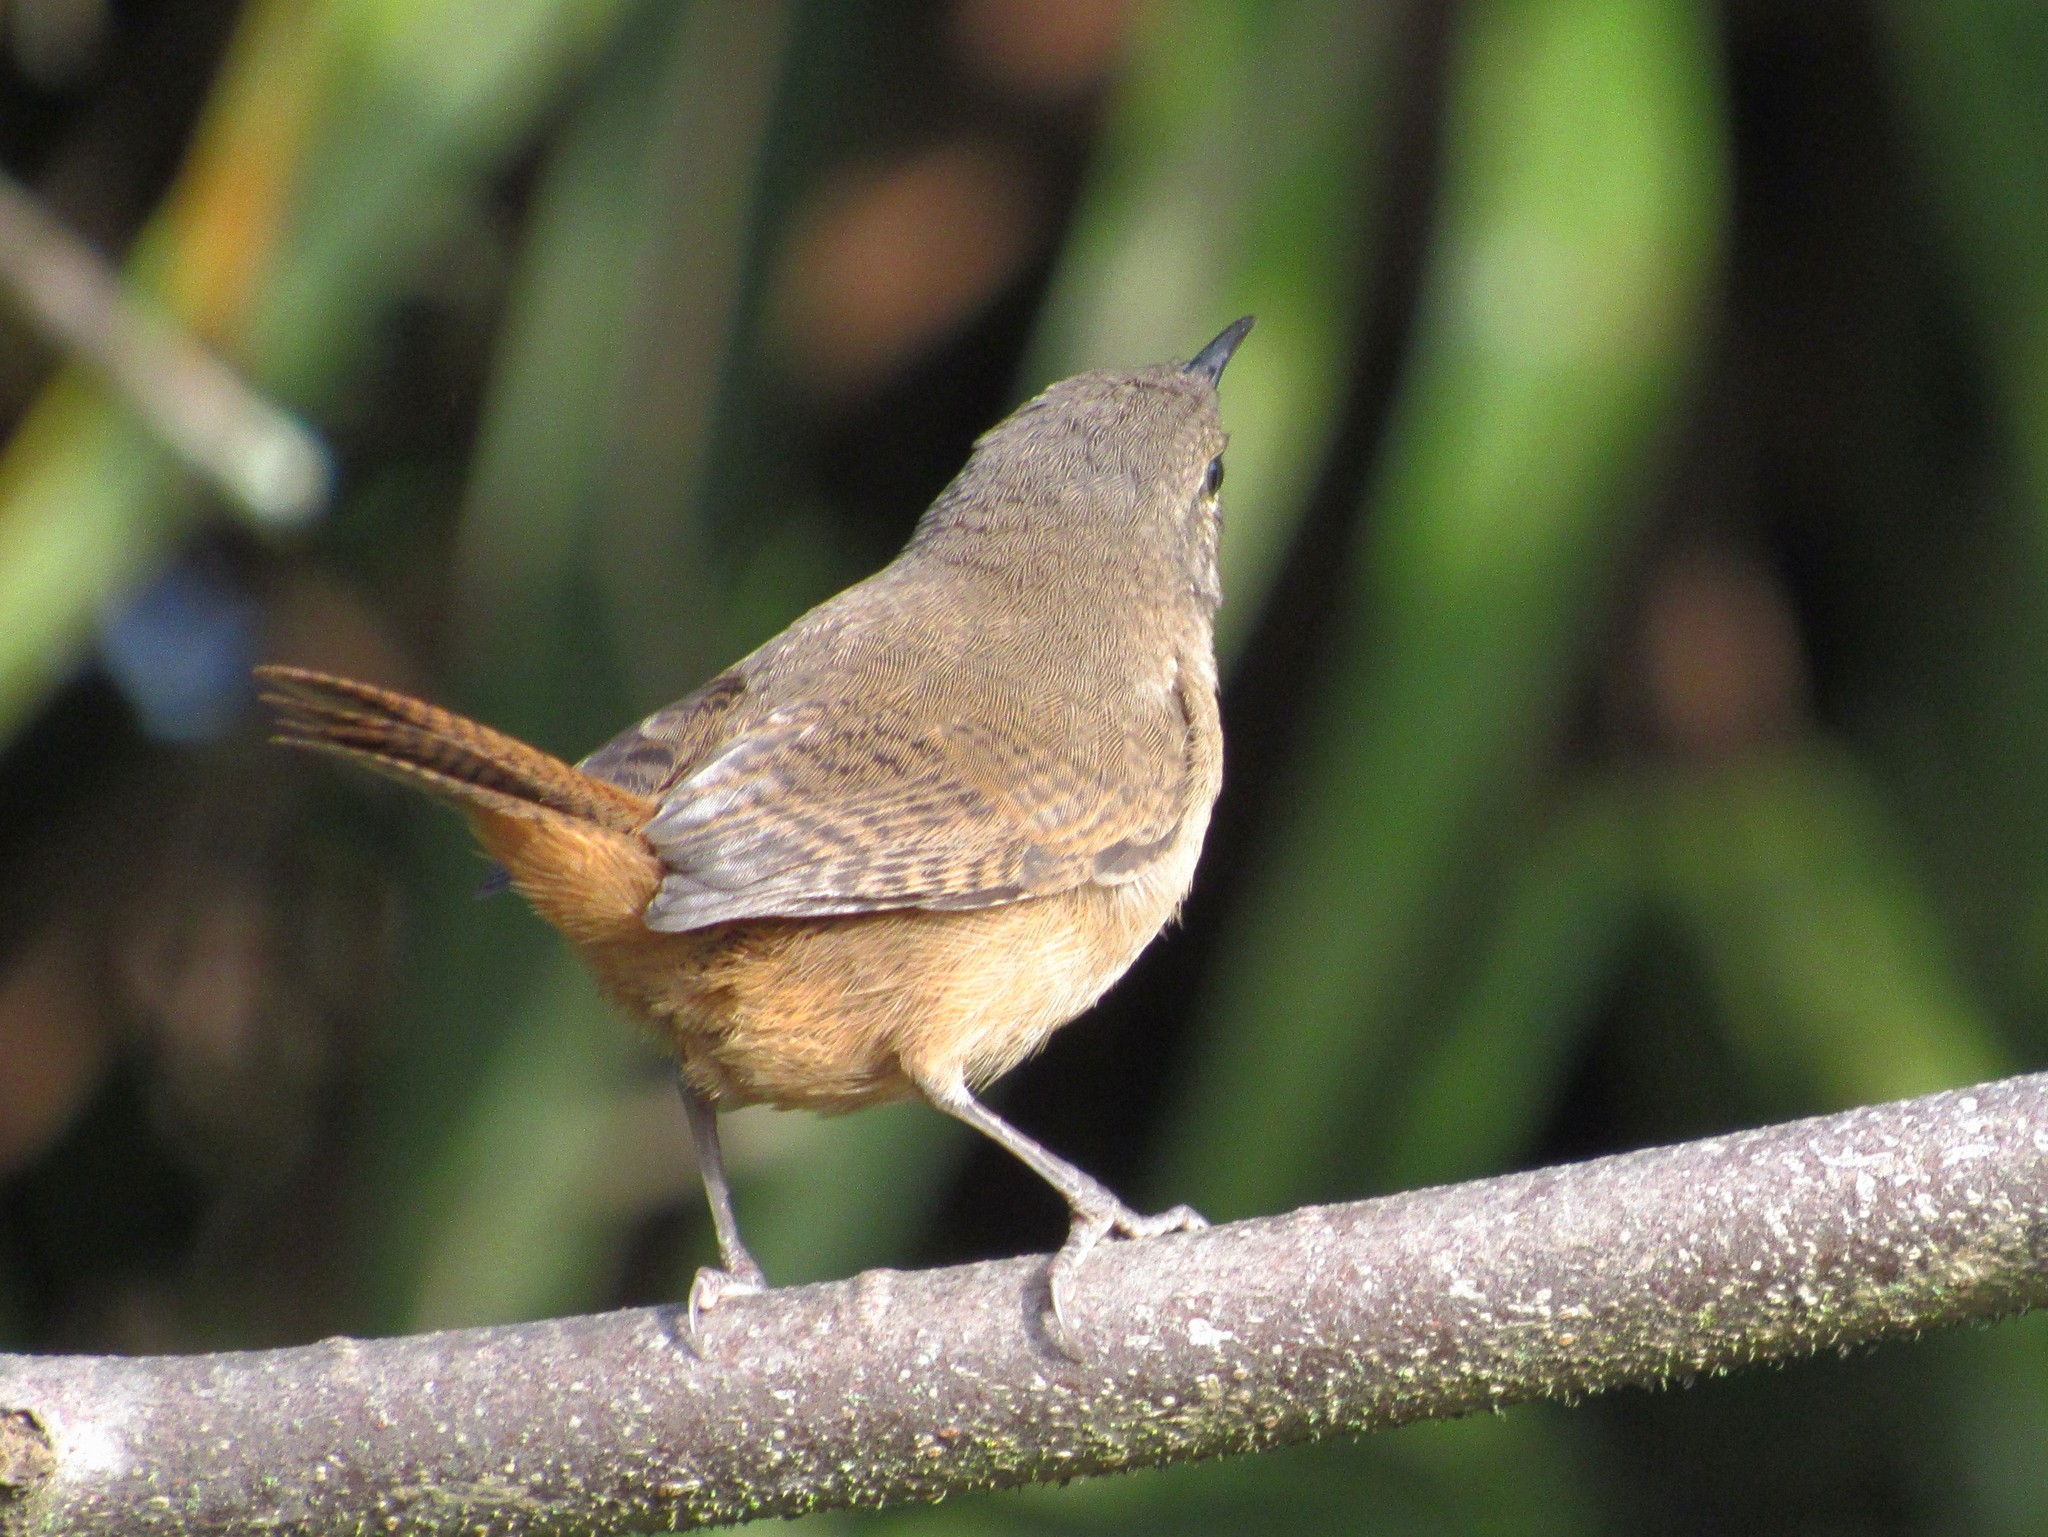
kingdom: Animalia
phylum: Chordata
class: Aves
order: Passeriformes
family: Troglodytidae
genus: Troglodytes
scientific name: Troglodytes aedon
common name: House wren
